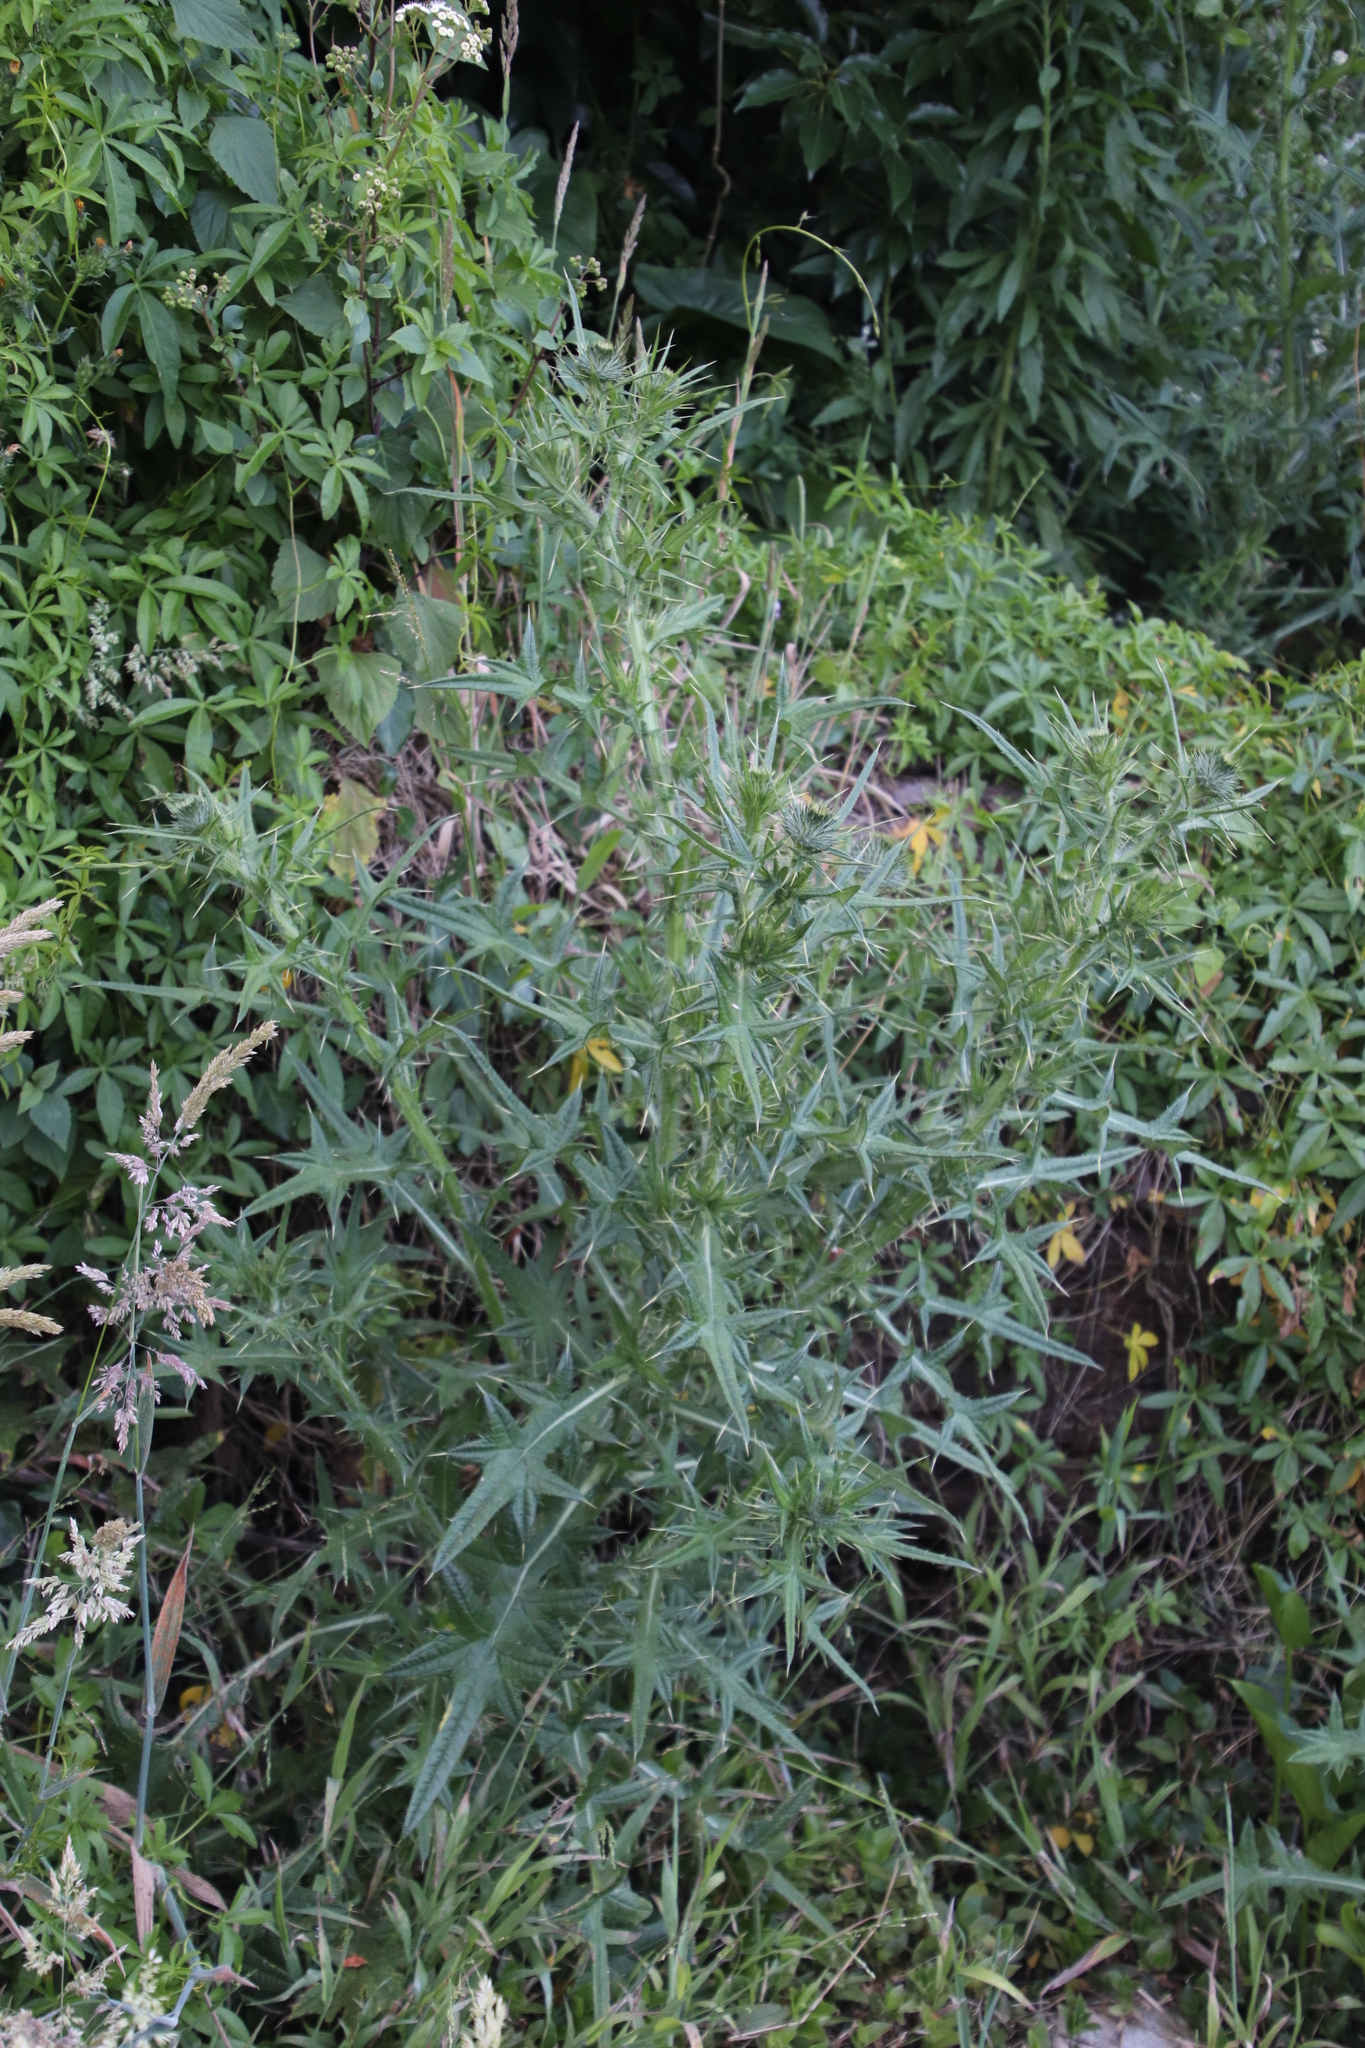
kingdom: Plantae
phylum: Tracheophyta
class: Magnoliopsida
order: Asterales
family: Asteraceae
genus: Cirsium
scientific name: Cirsium vulgare
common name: Bull thistle
